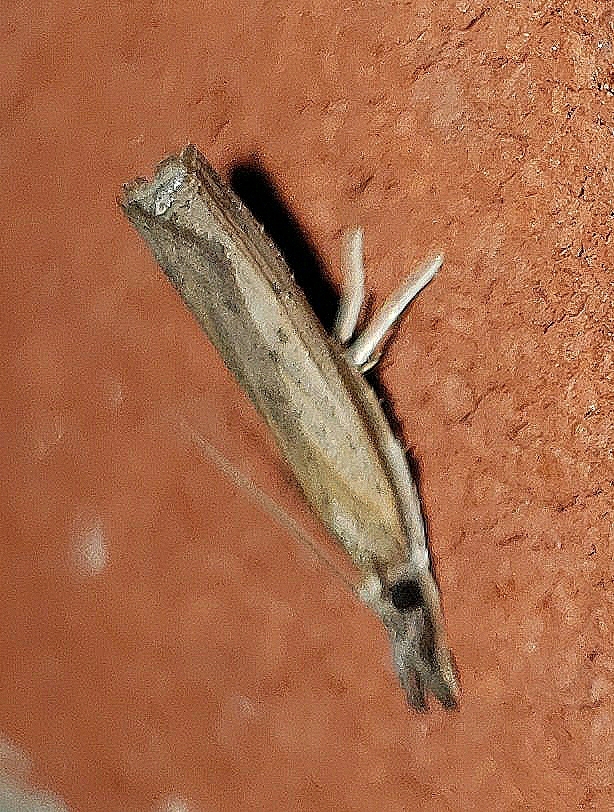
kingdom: Animalia
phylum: Arthropoda
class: Insecta
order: Lepidoptera
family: Crambidae
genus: Fissicrambus
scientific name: Fissicrambus mutabilis
